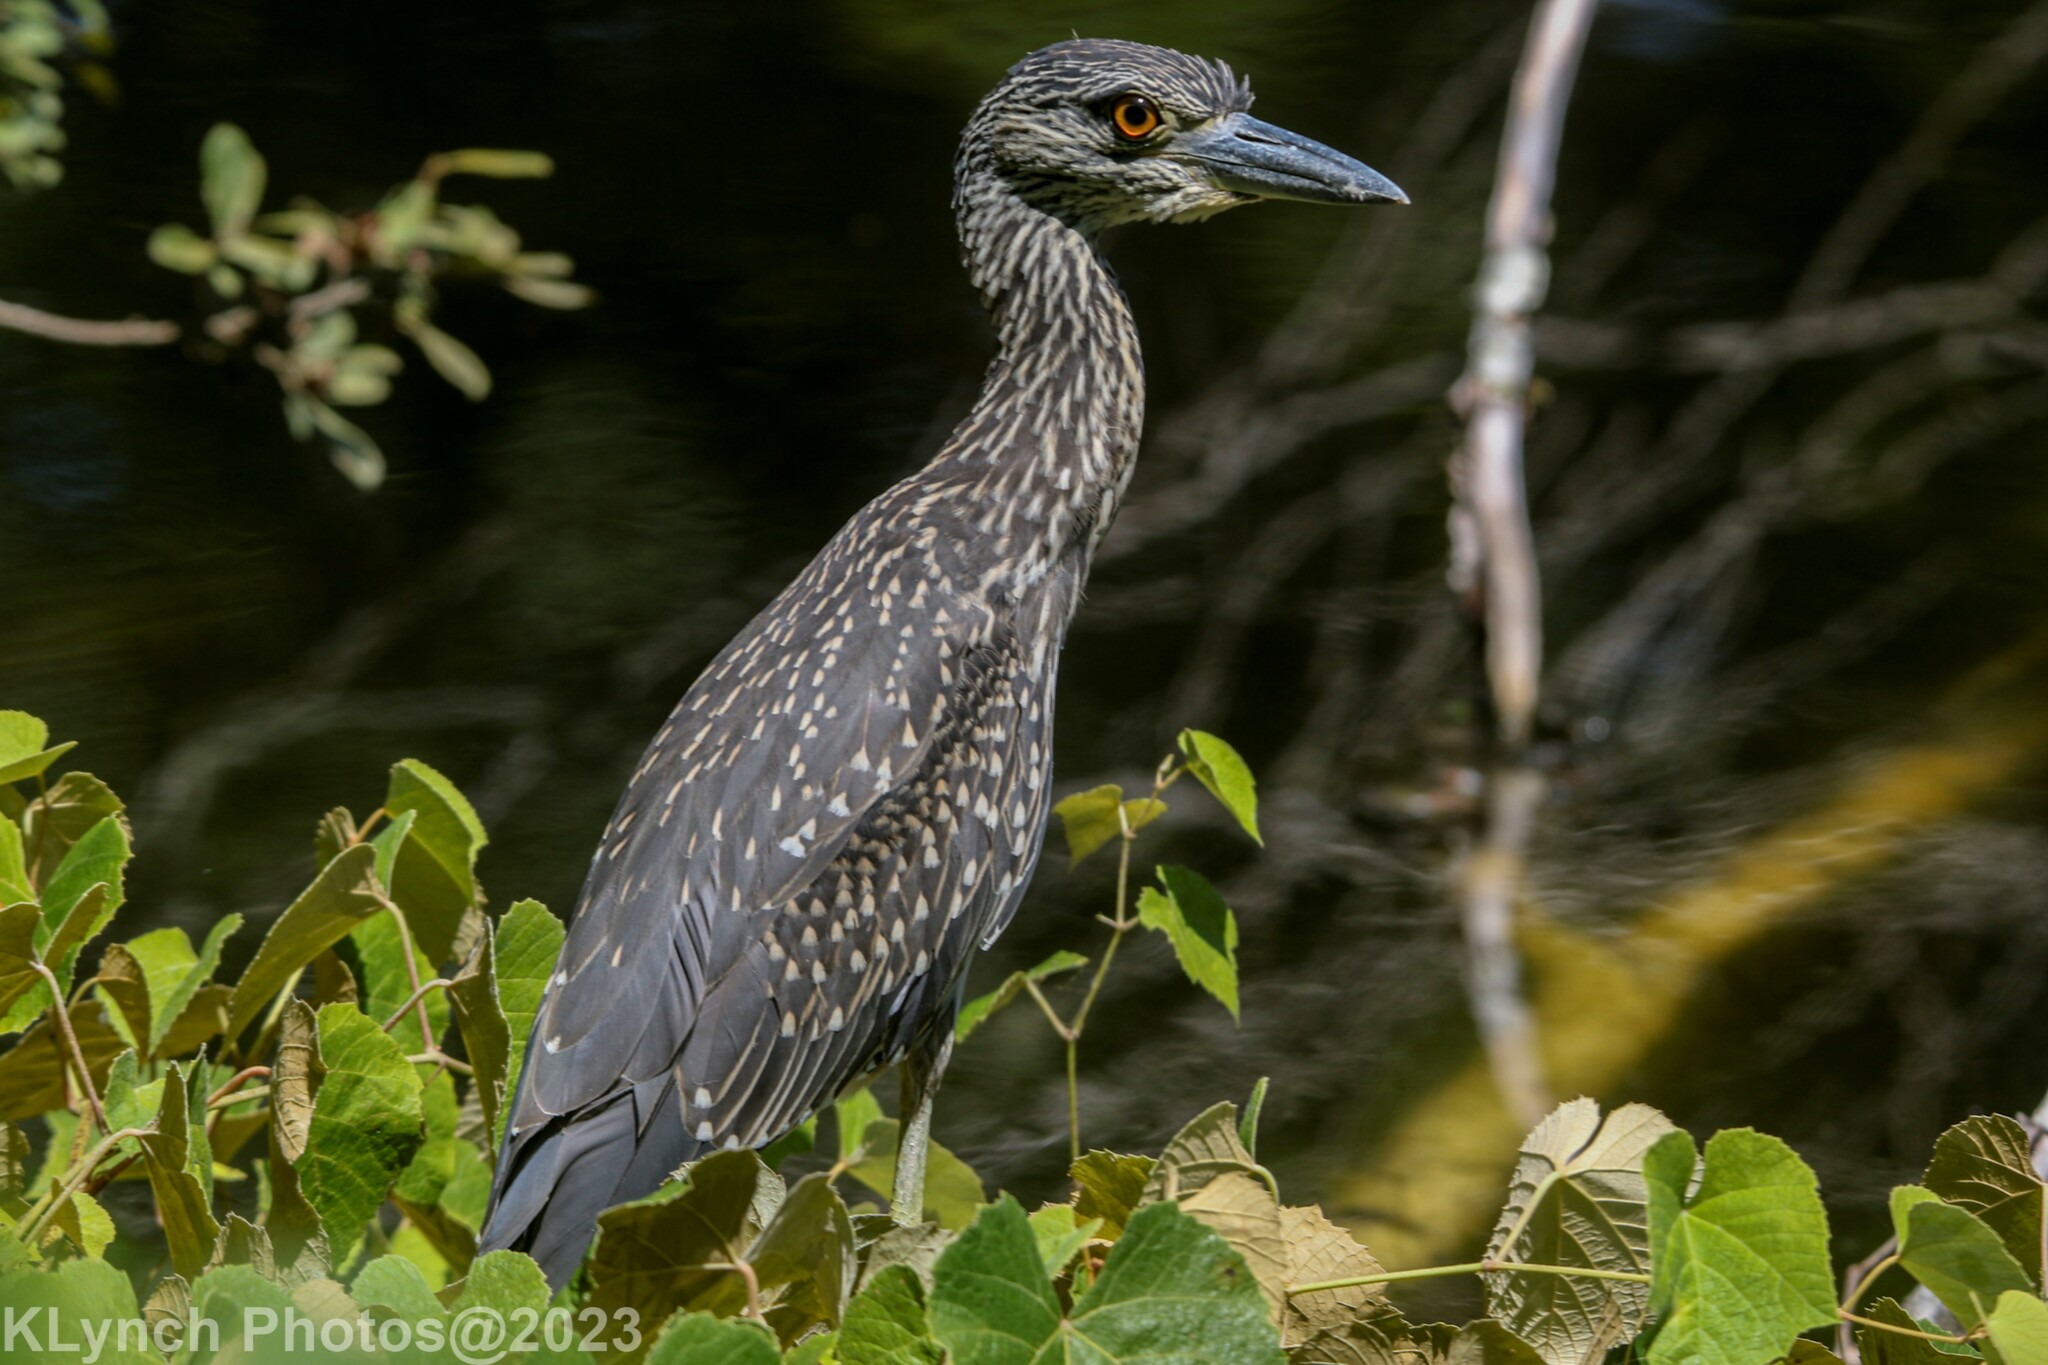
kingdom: Animalia
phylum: Chordata
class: Aves
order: Pelecaniformes
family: Ardeidae
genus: Nyctanassa
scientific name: Nyctanassa violacea
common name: Yellow-crowned night heron
